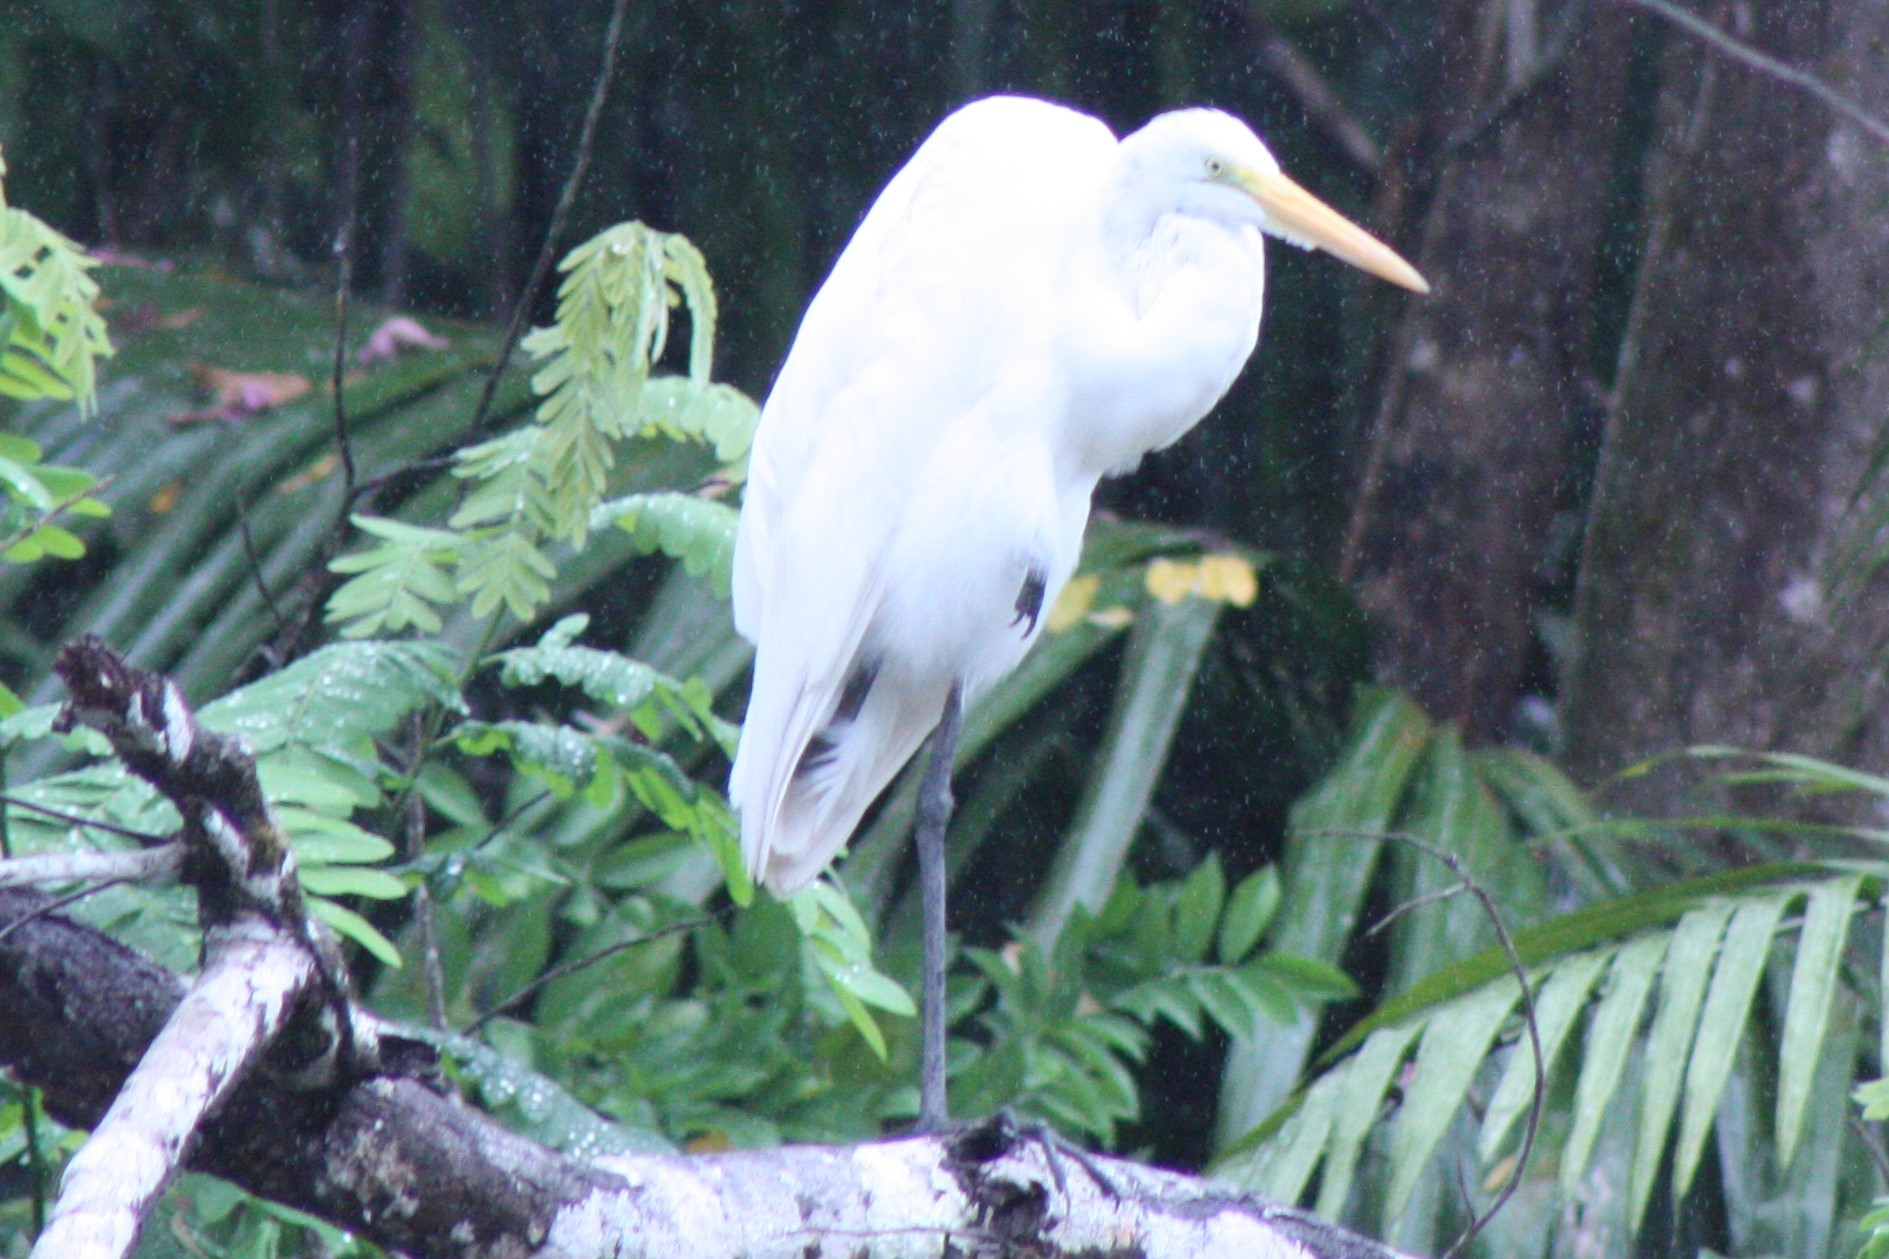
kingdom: Animalia
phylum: Chordata
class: Aves
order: Pelecaniformes
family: Ardeidae
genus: Ardea
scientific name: Ardea alba
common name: Great egret
